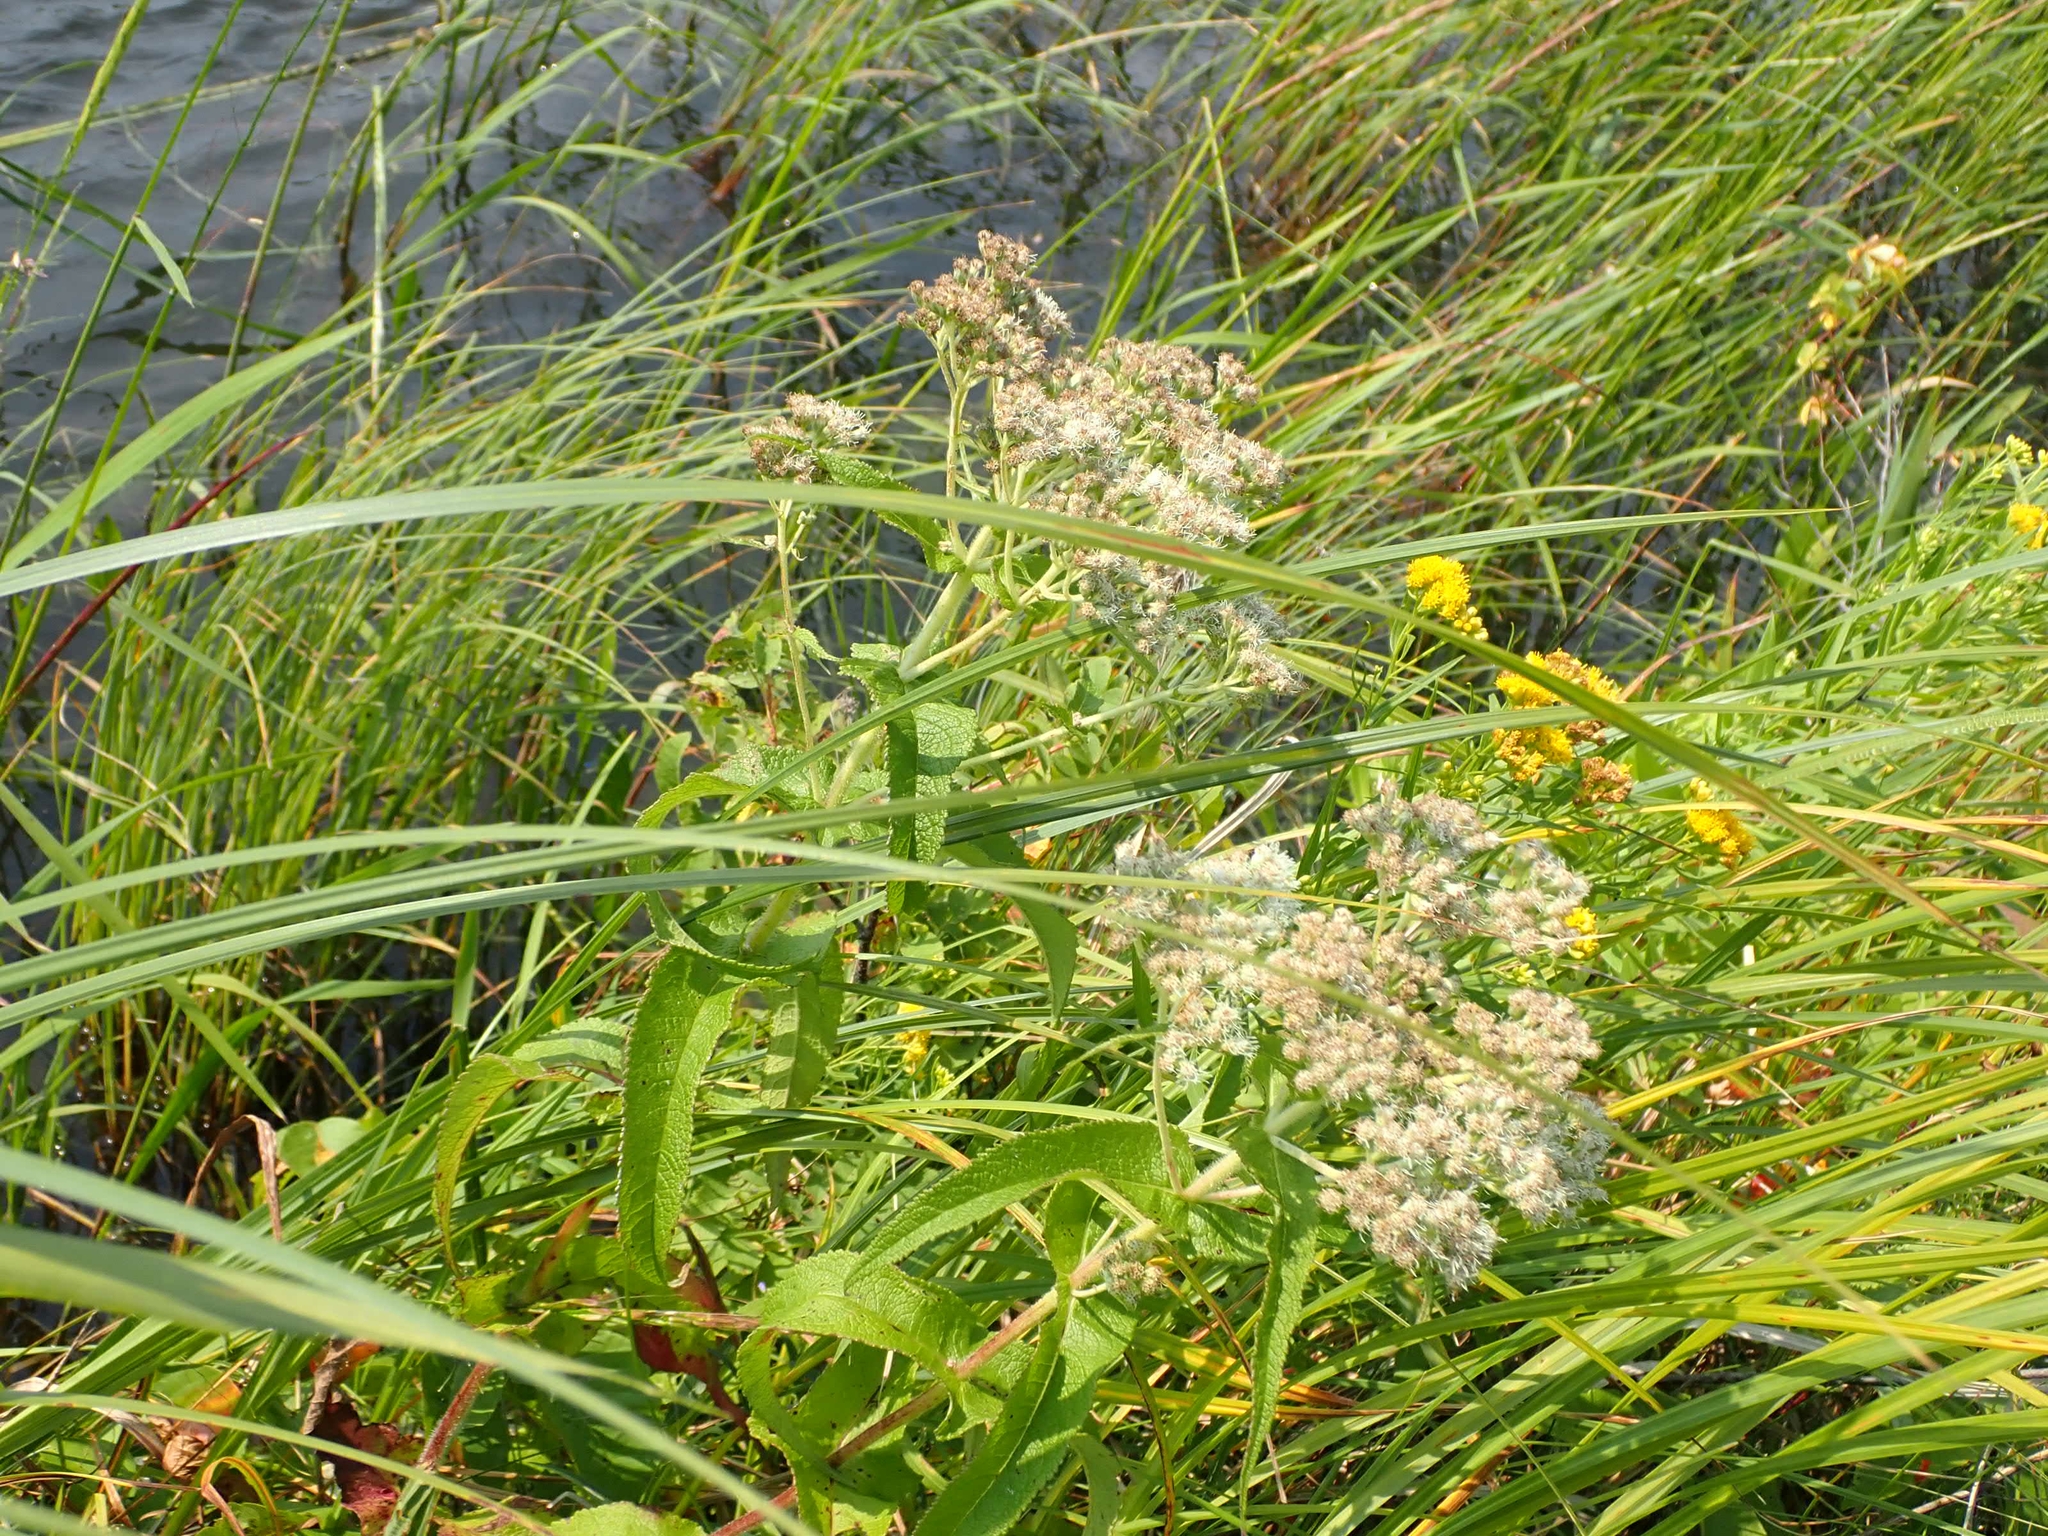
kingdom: Plantae
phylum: Tracheophyta
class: Magnoliopsida
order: Asterales
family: Asteraceae
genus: Eupatorium
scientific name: Eupatorium perfoliatum
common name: Boneset
